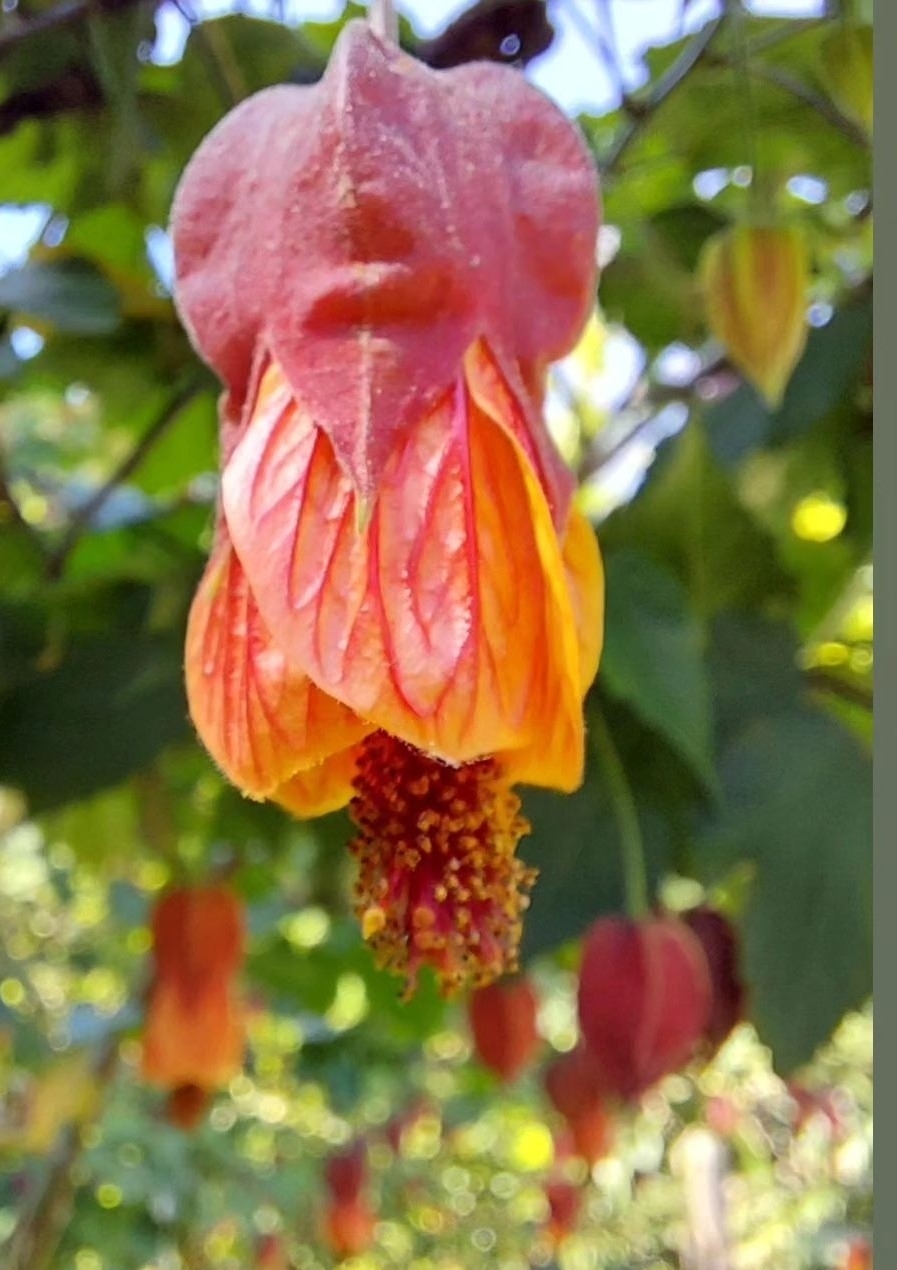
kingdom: Plantae
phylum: Tracheophyta
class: Magnoliopsida
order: Malvales
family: Malvaceae
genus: Callianthe
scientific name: Callianthe megapotamica
